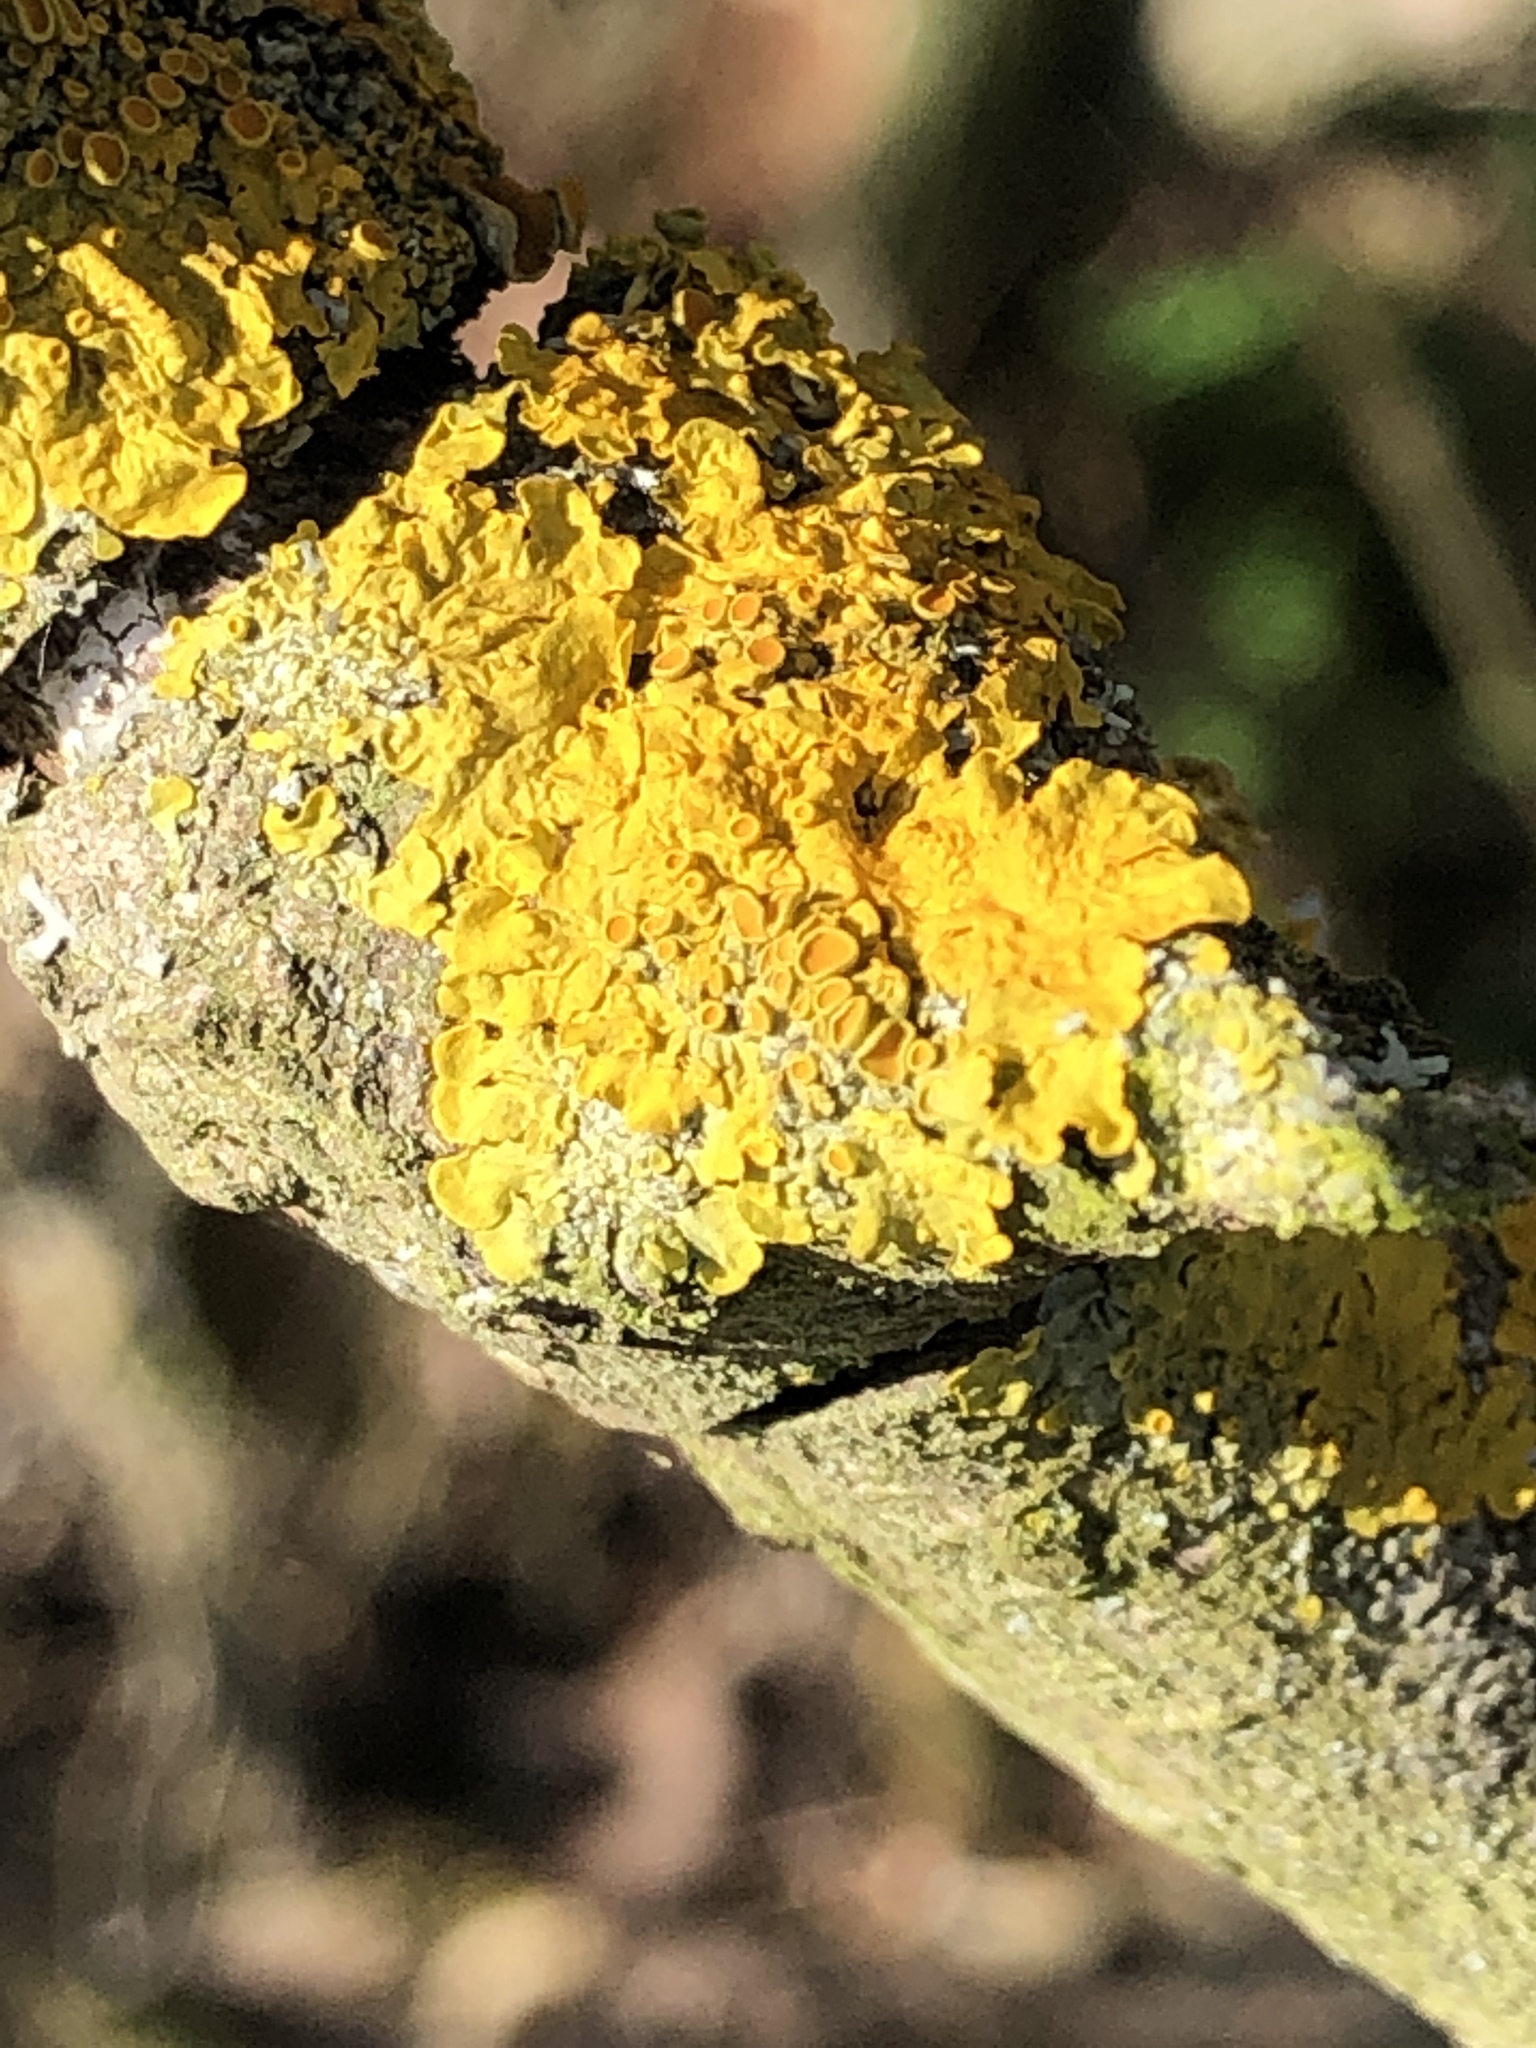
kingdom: Fungi
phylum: Ascomycota
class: Lecanoromycetes
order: Teloschistales
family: Teloschistaceae
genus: Xanthoria
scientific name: Xanthoria parietina
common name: Common orange lichen
